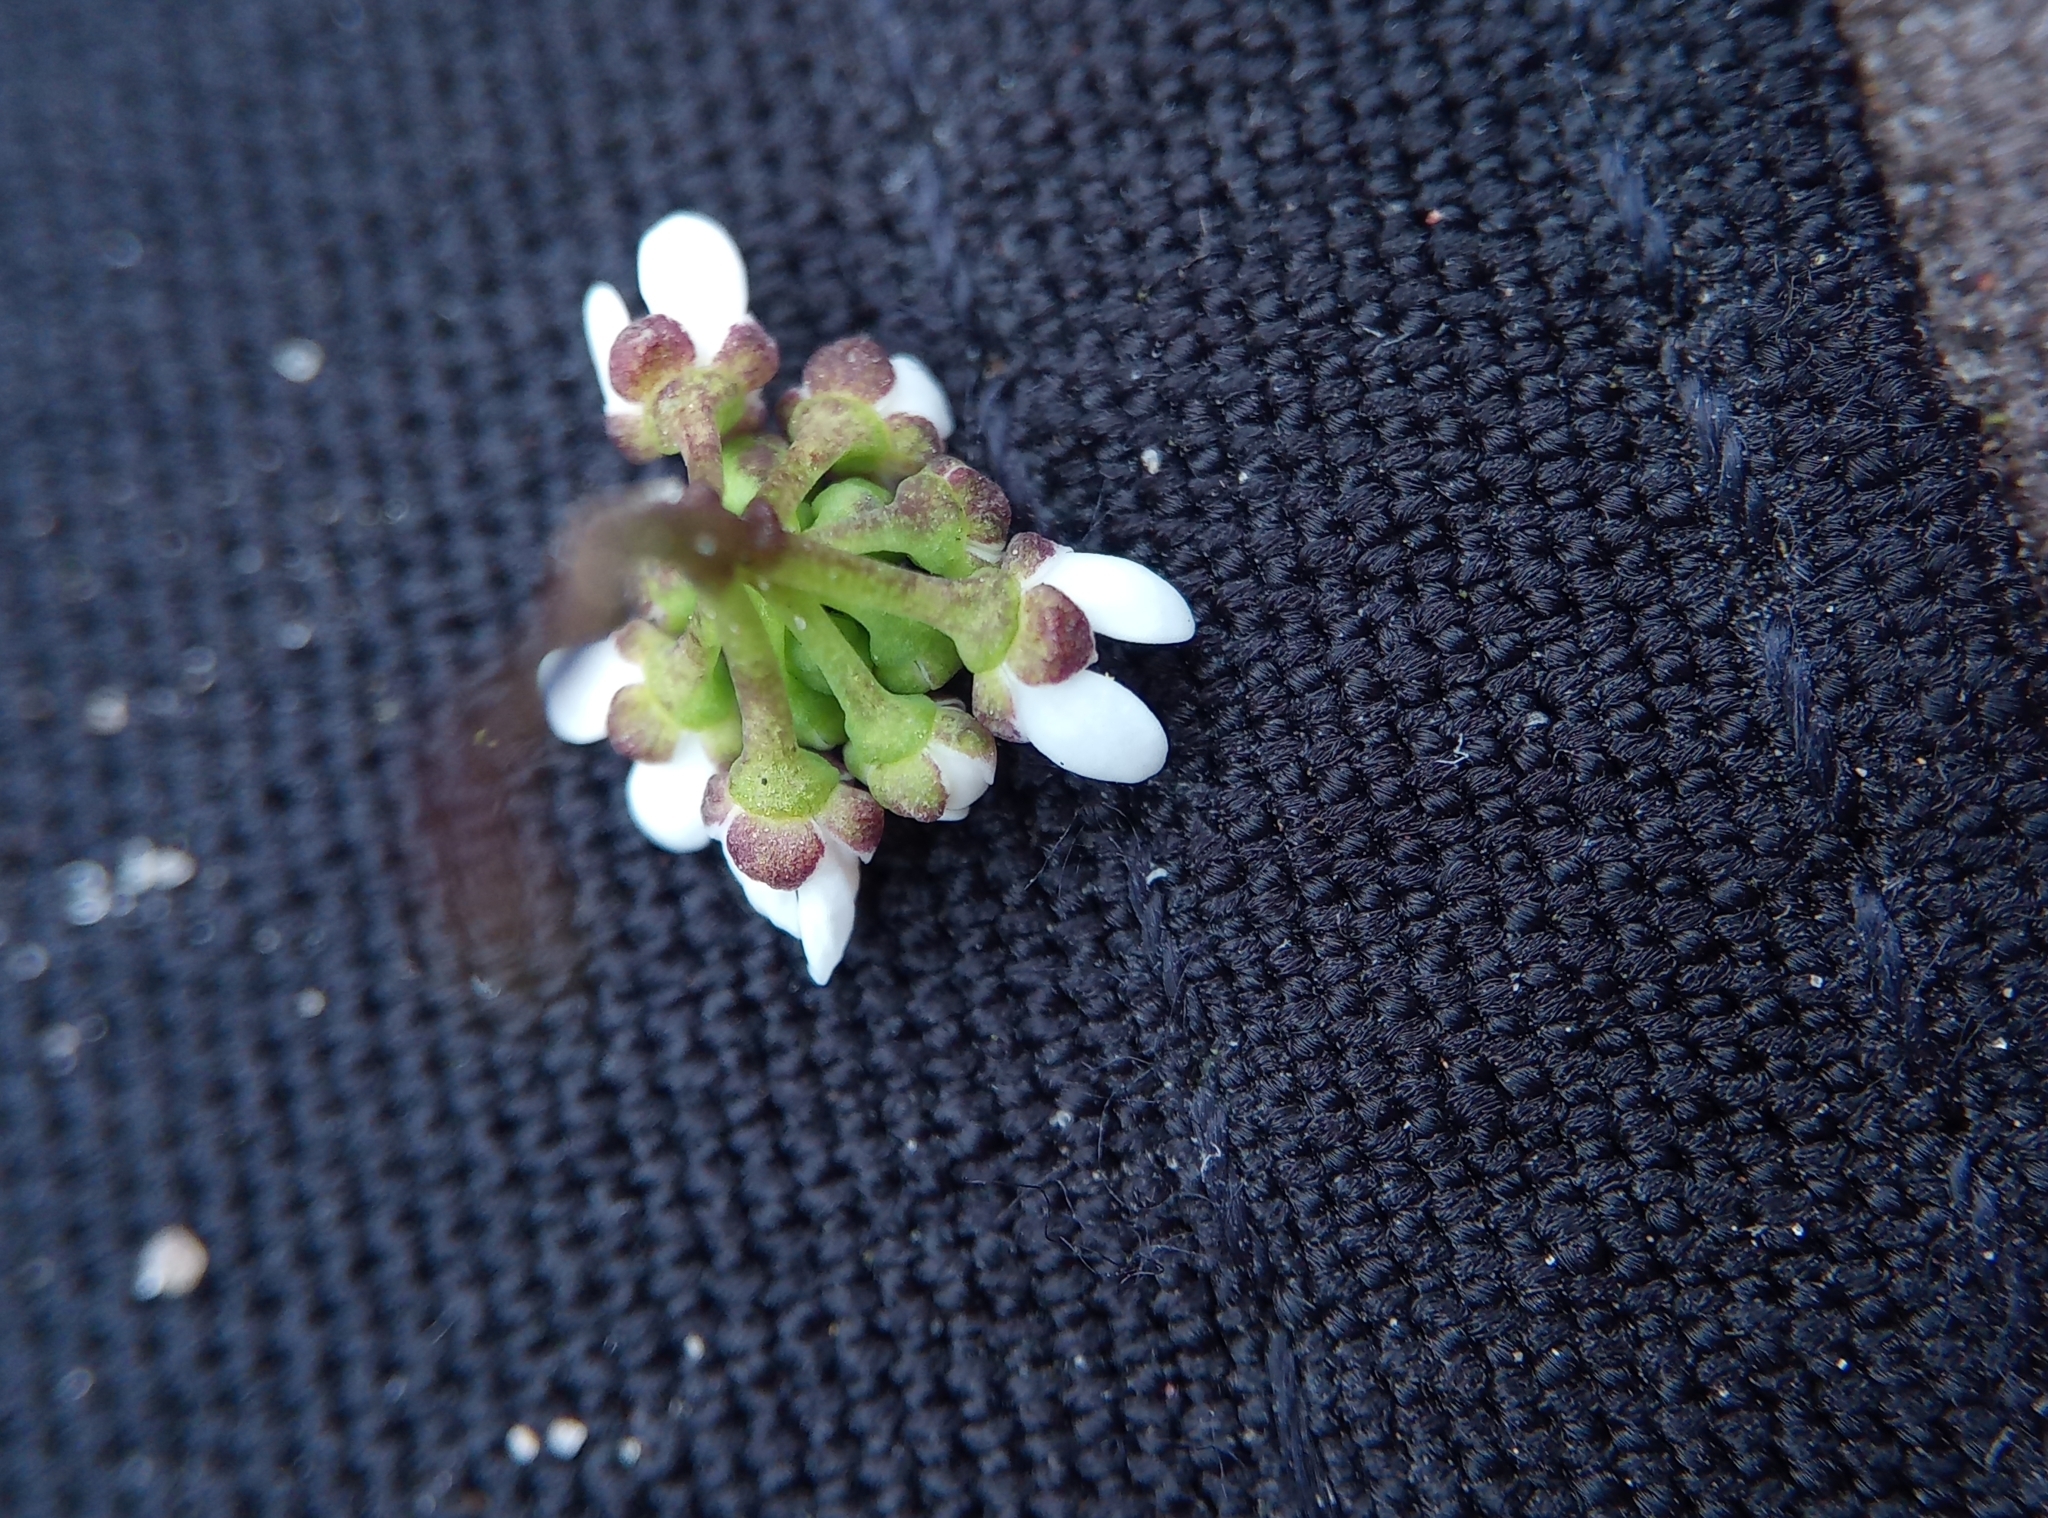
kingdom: Plantae
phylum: Tracheophyta
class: Magnoliopsida
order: Brassicales
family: Brassicaceae
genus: Teesdalia
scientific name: Teesdalia nudicaulis
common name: Shepherd's cress
